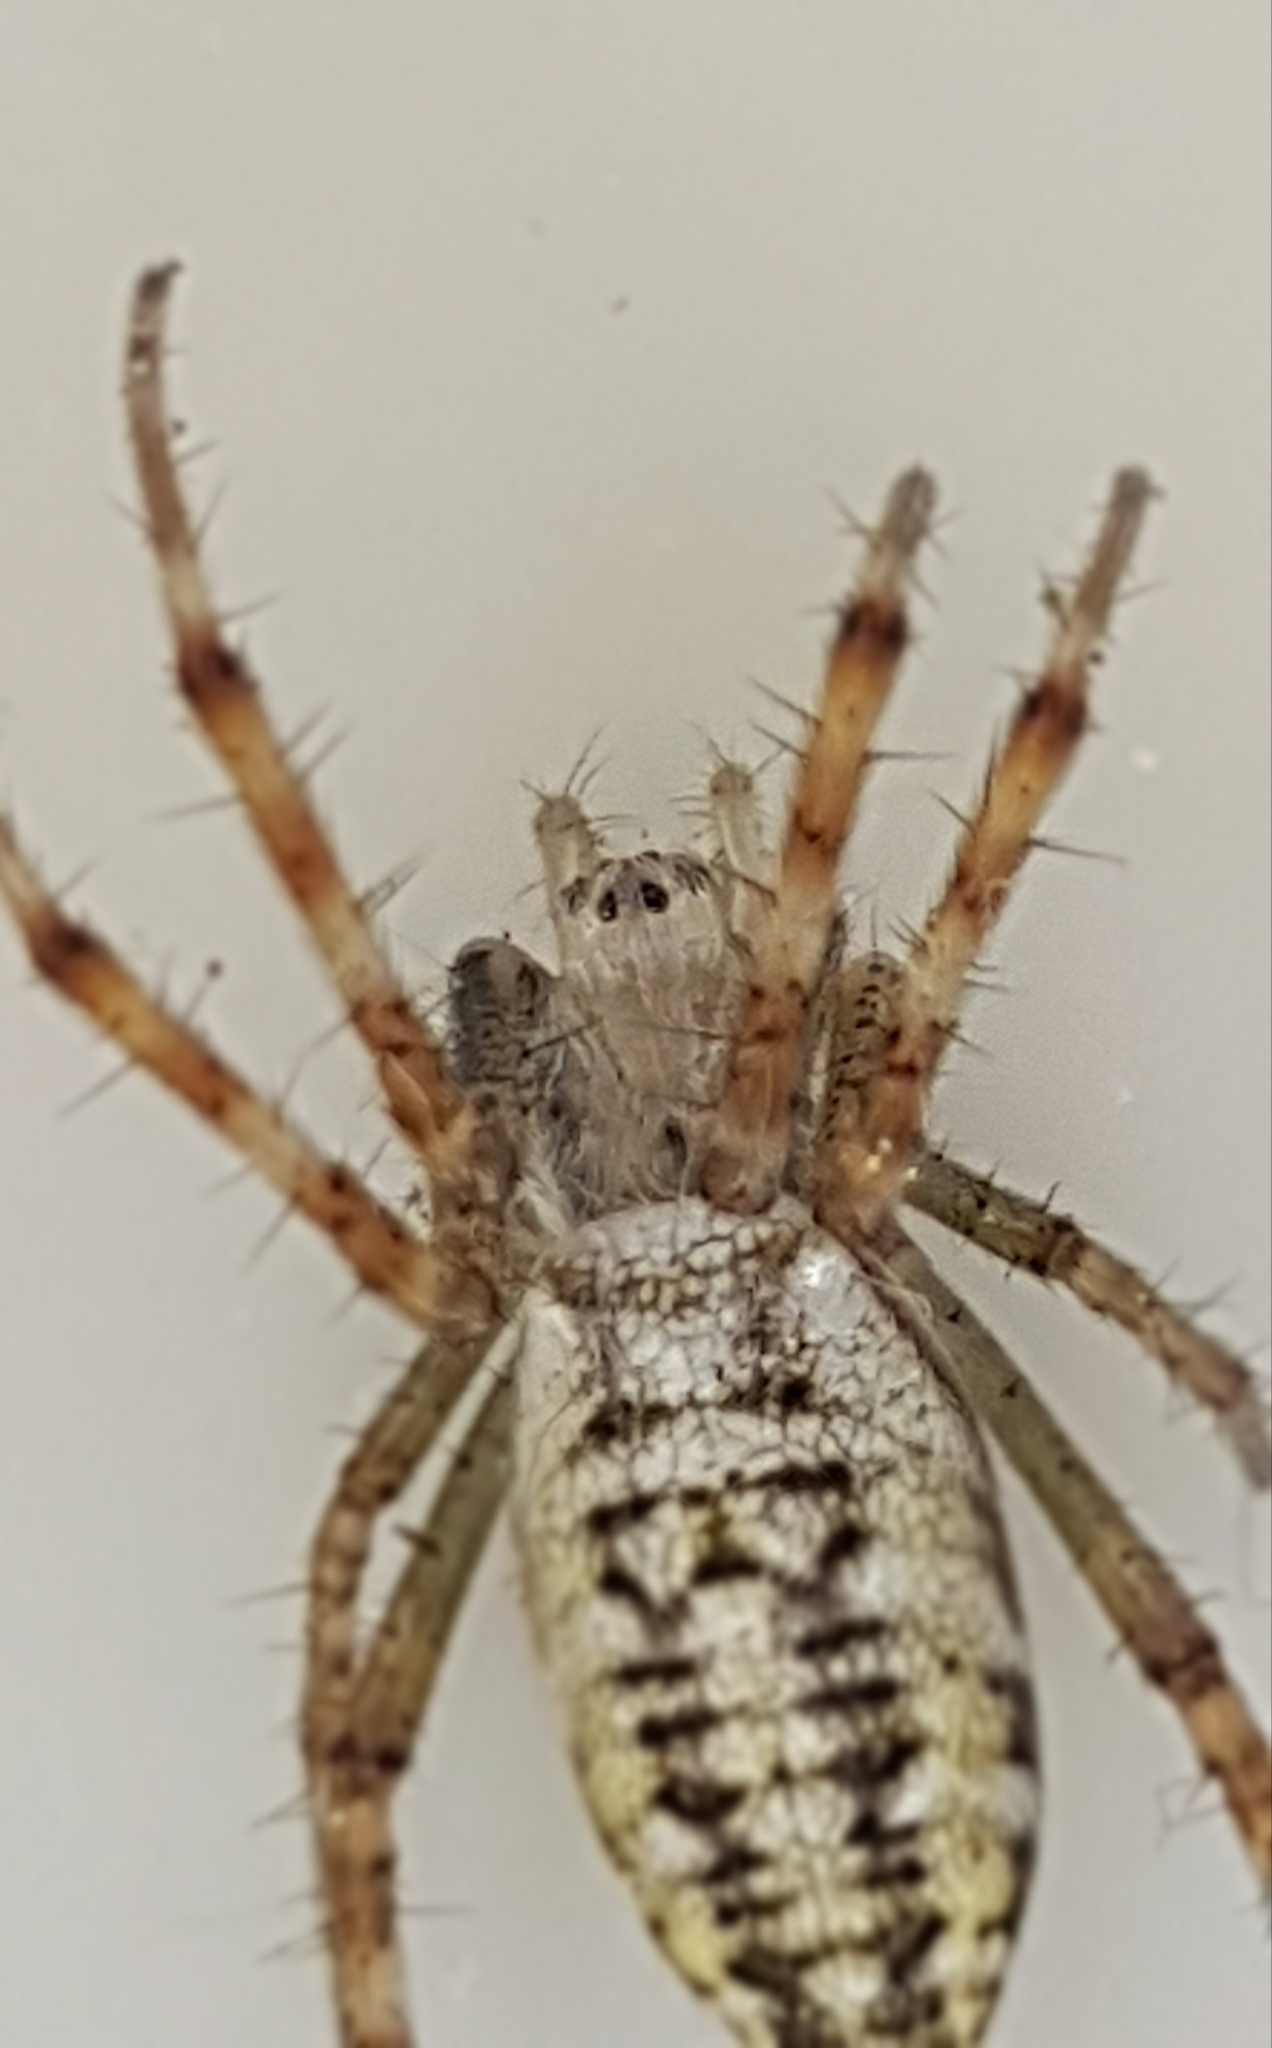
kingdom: Animalia
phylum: Arthropoda
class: Arachnida
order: Araneae
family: Araneidae
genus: Argiope
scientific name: Argiope bruennichi
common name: Wasp spider
